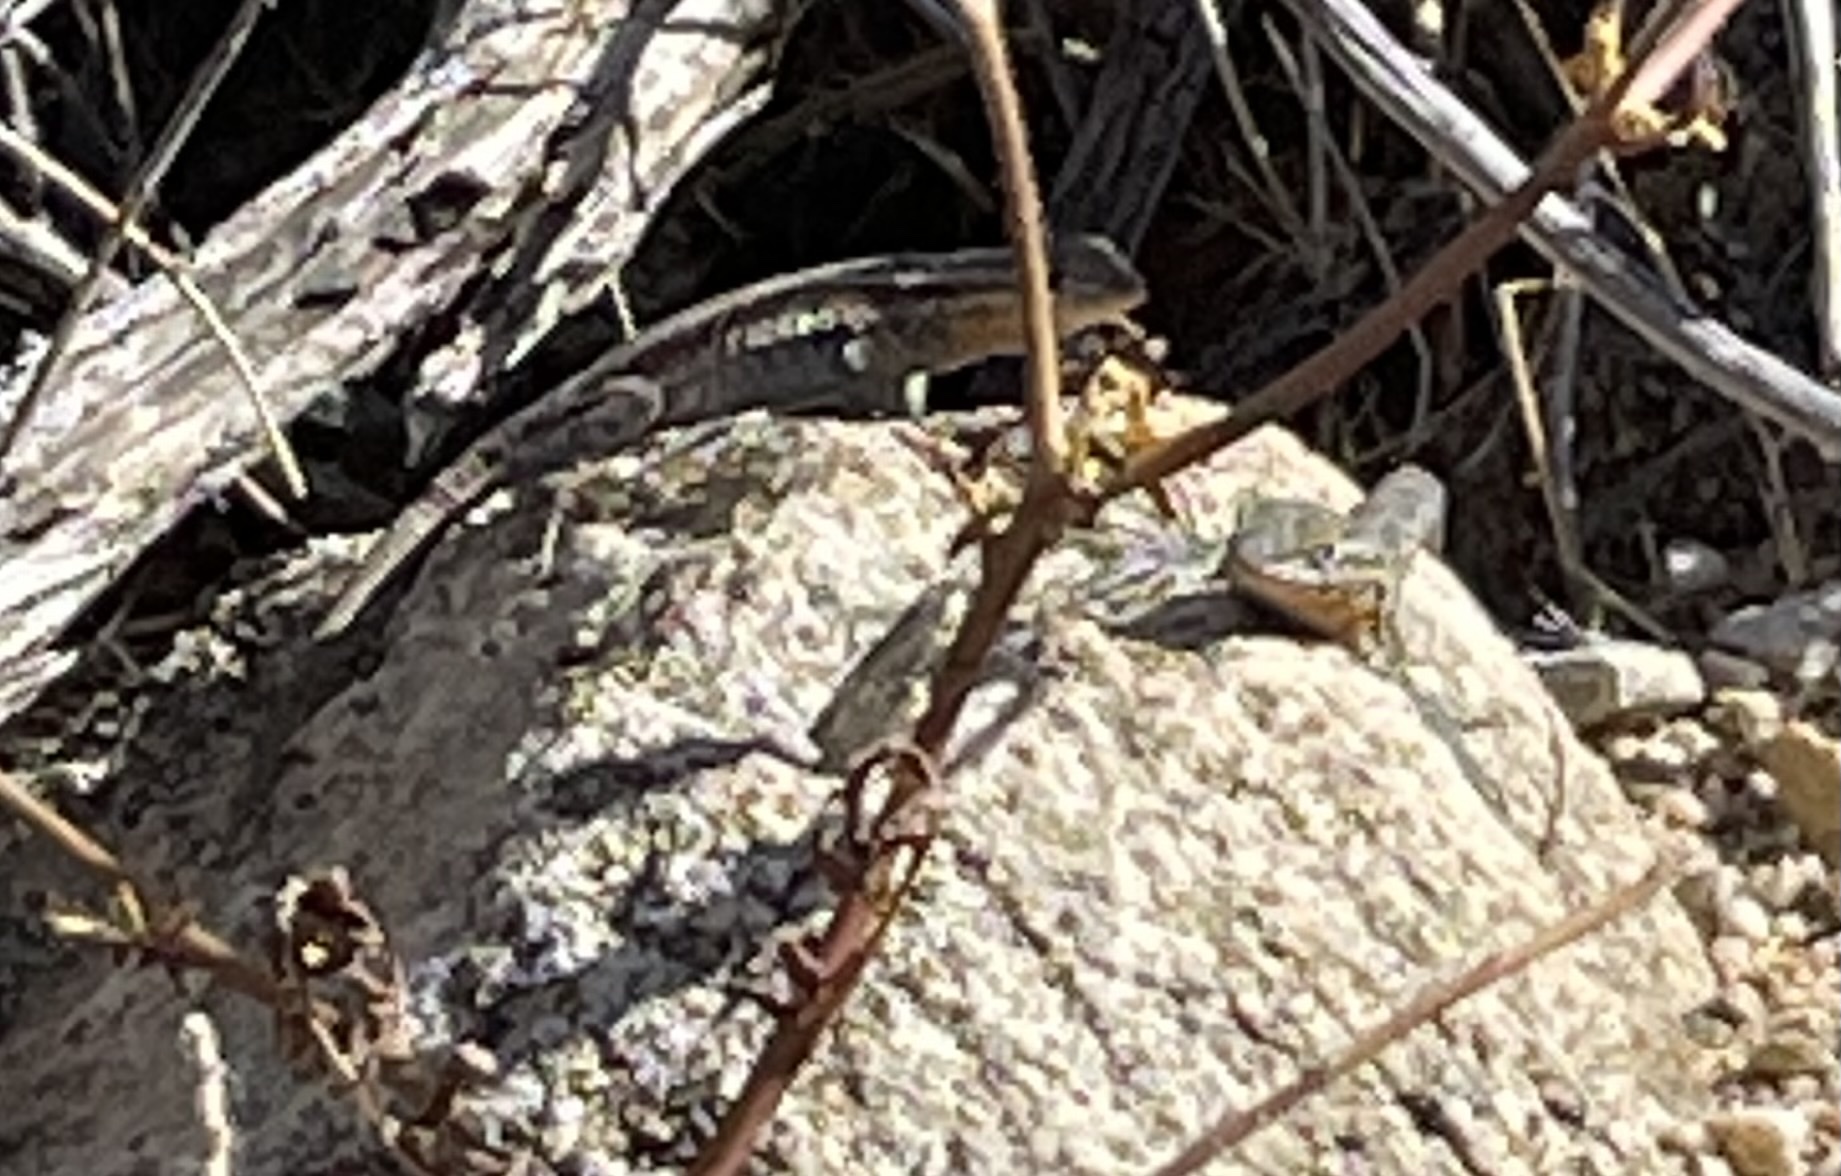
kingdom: Animalia
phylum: Chordata
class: Squamata
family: Phrynosomatidae
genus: Uta
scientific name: Uta stansburiana
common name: Side-blotched lizard
